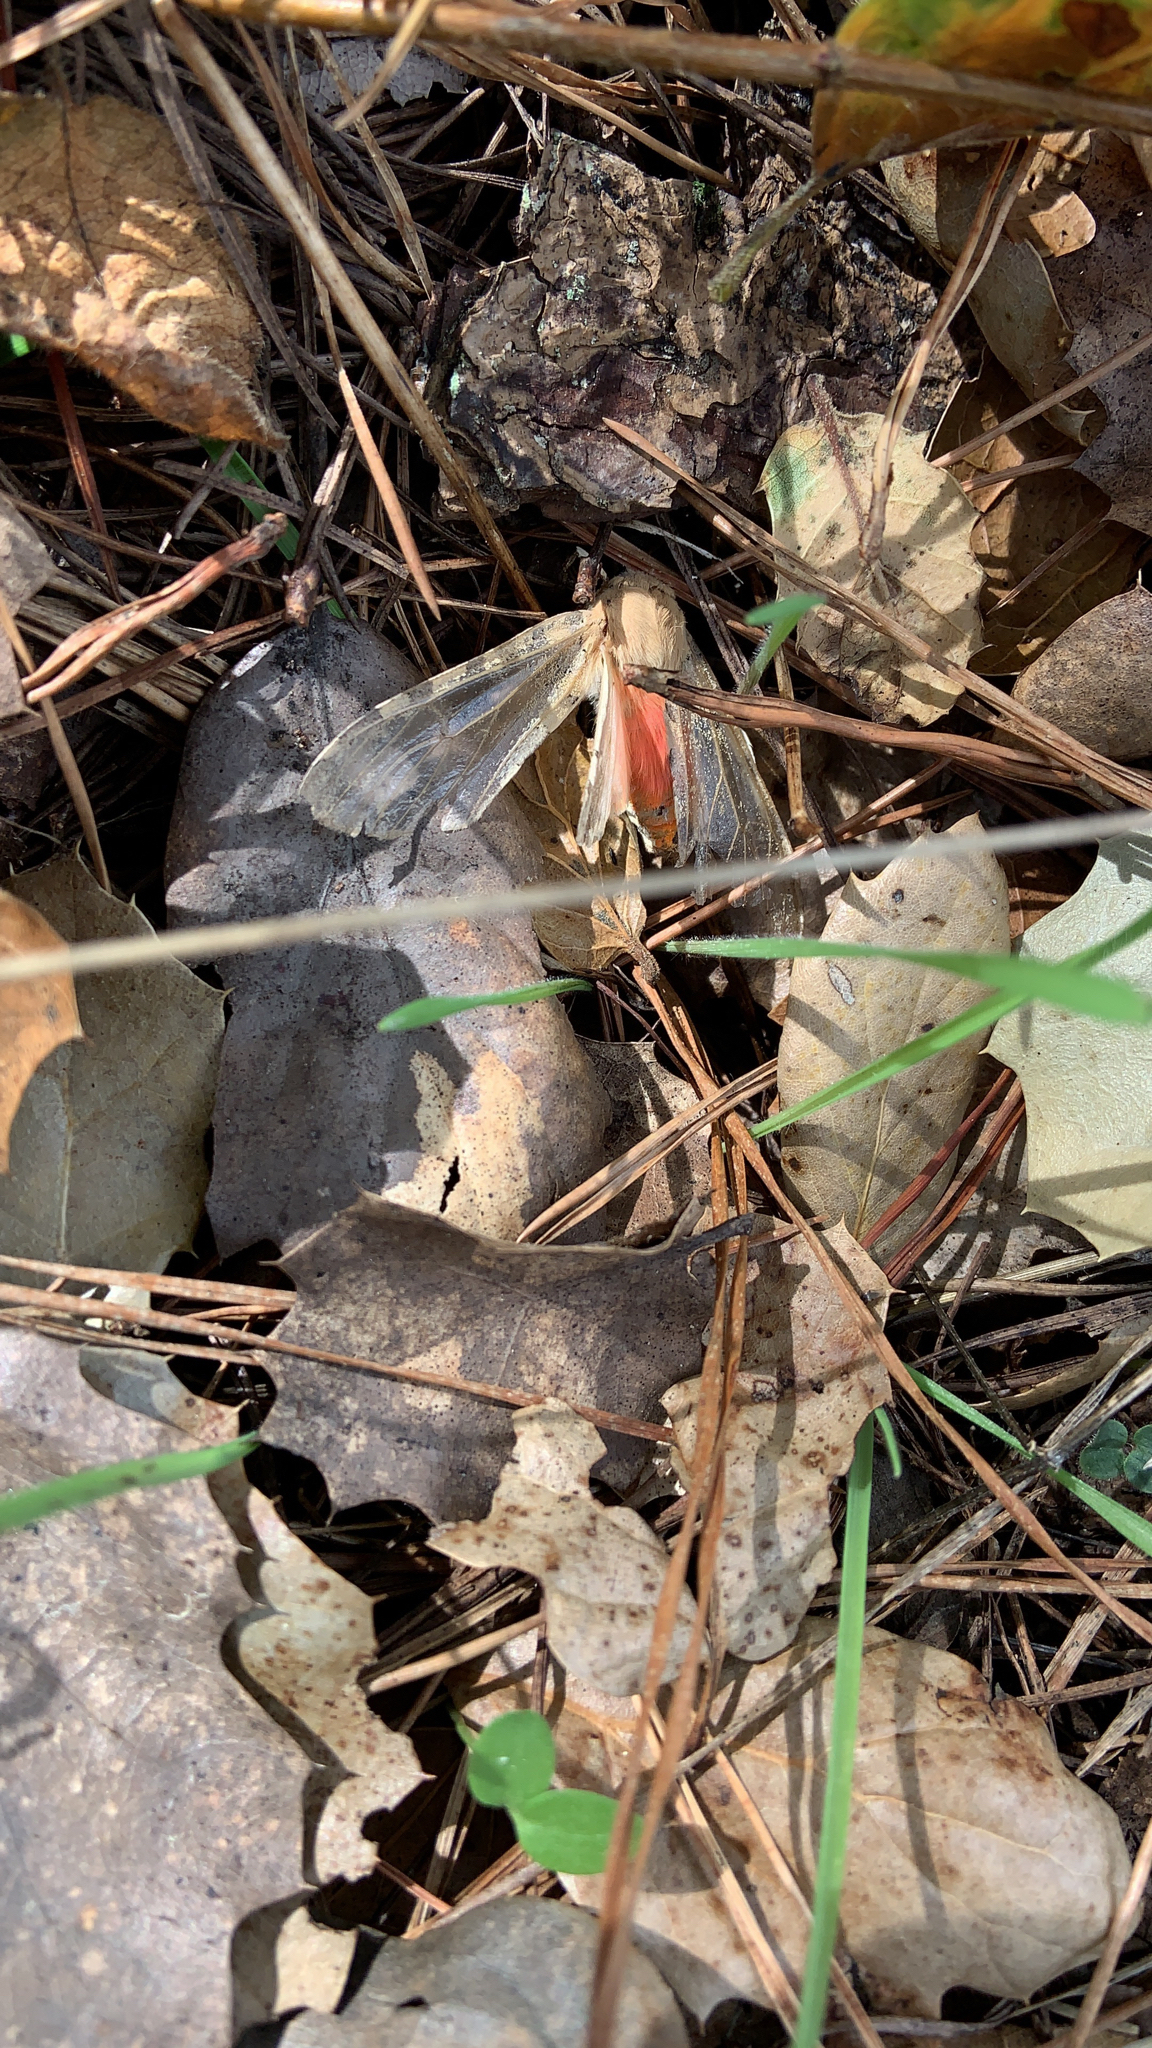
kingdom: Animalia
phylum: Arthropoda
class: Insecta
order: Lepidoptera
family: Erebidae
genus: Hemihyalea
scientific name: Hemihyalea edwardsii
